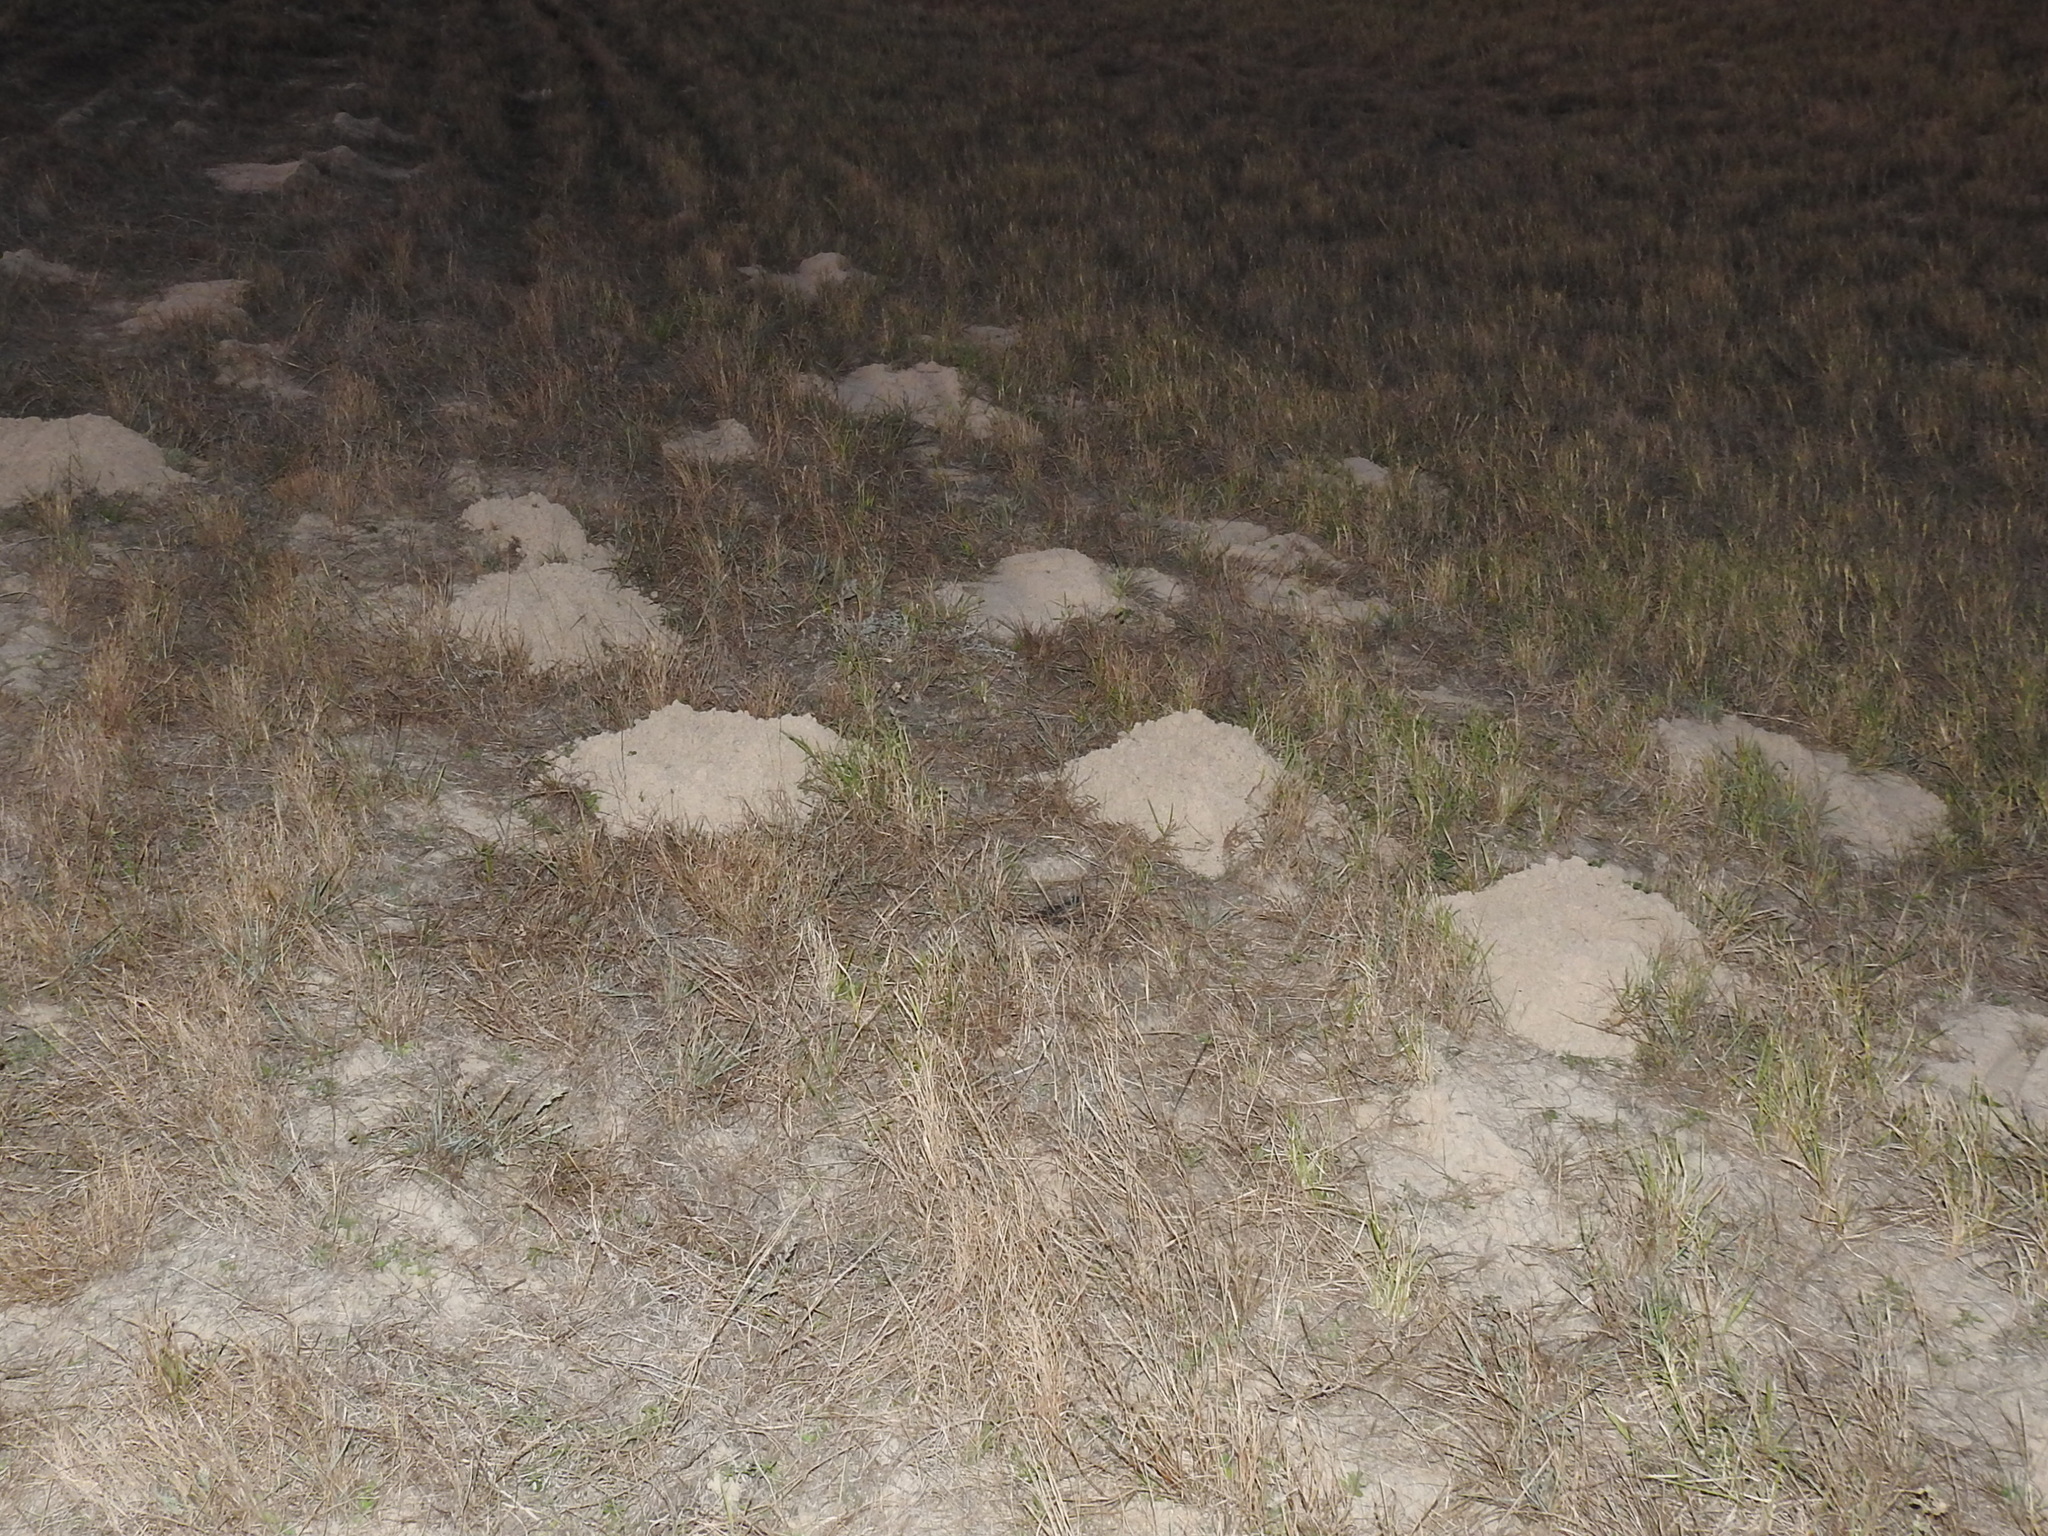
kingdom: Animalia
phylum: Chordata
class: Mammalia
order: Rodentia
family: Geomyidae
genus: Geomys
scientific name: Geomys personatus
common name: Texas pocket gopher
